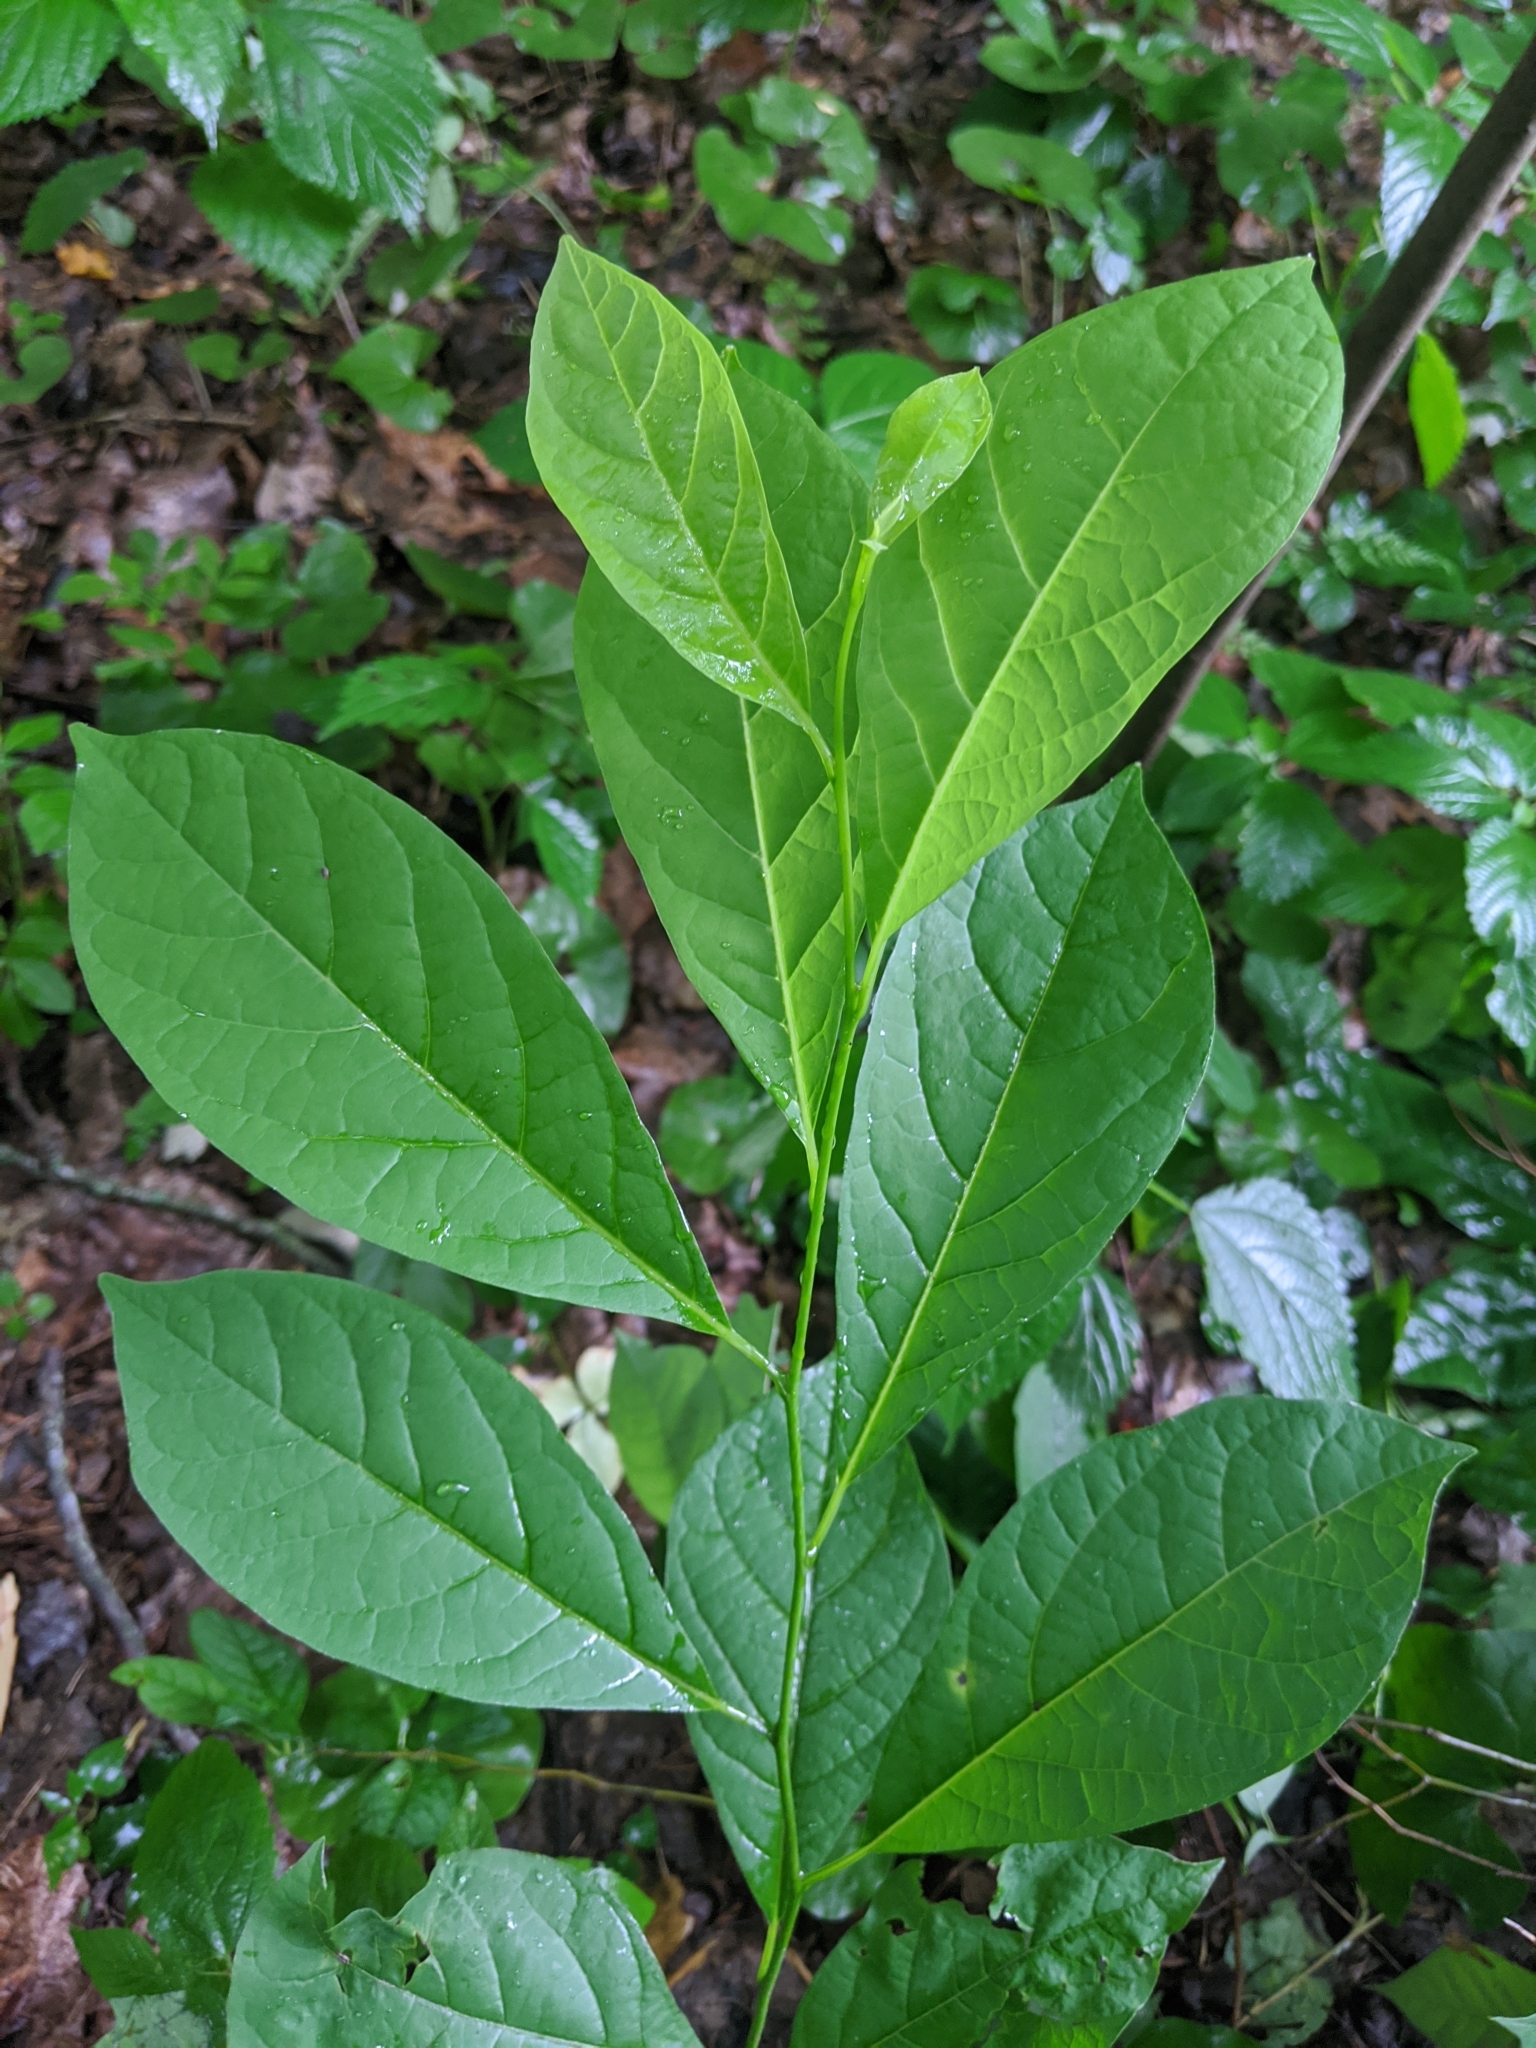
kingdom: Plantae
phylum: Tracheophyta
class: Magnoliopsida
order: Laurales
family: Lauraceae
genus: Lindera
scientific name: Lindera benzoin
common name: Spicebush
